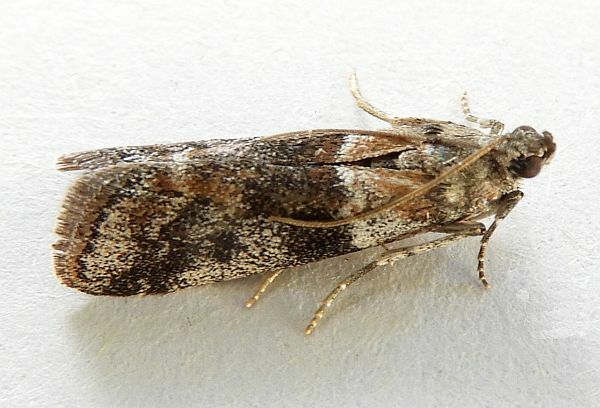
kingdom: Animalia
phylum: Arthropoda
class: Insecta
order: Lepidoptera
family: Pyralidae
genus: Caudellia
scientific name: Caudellia nigrella
